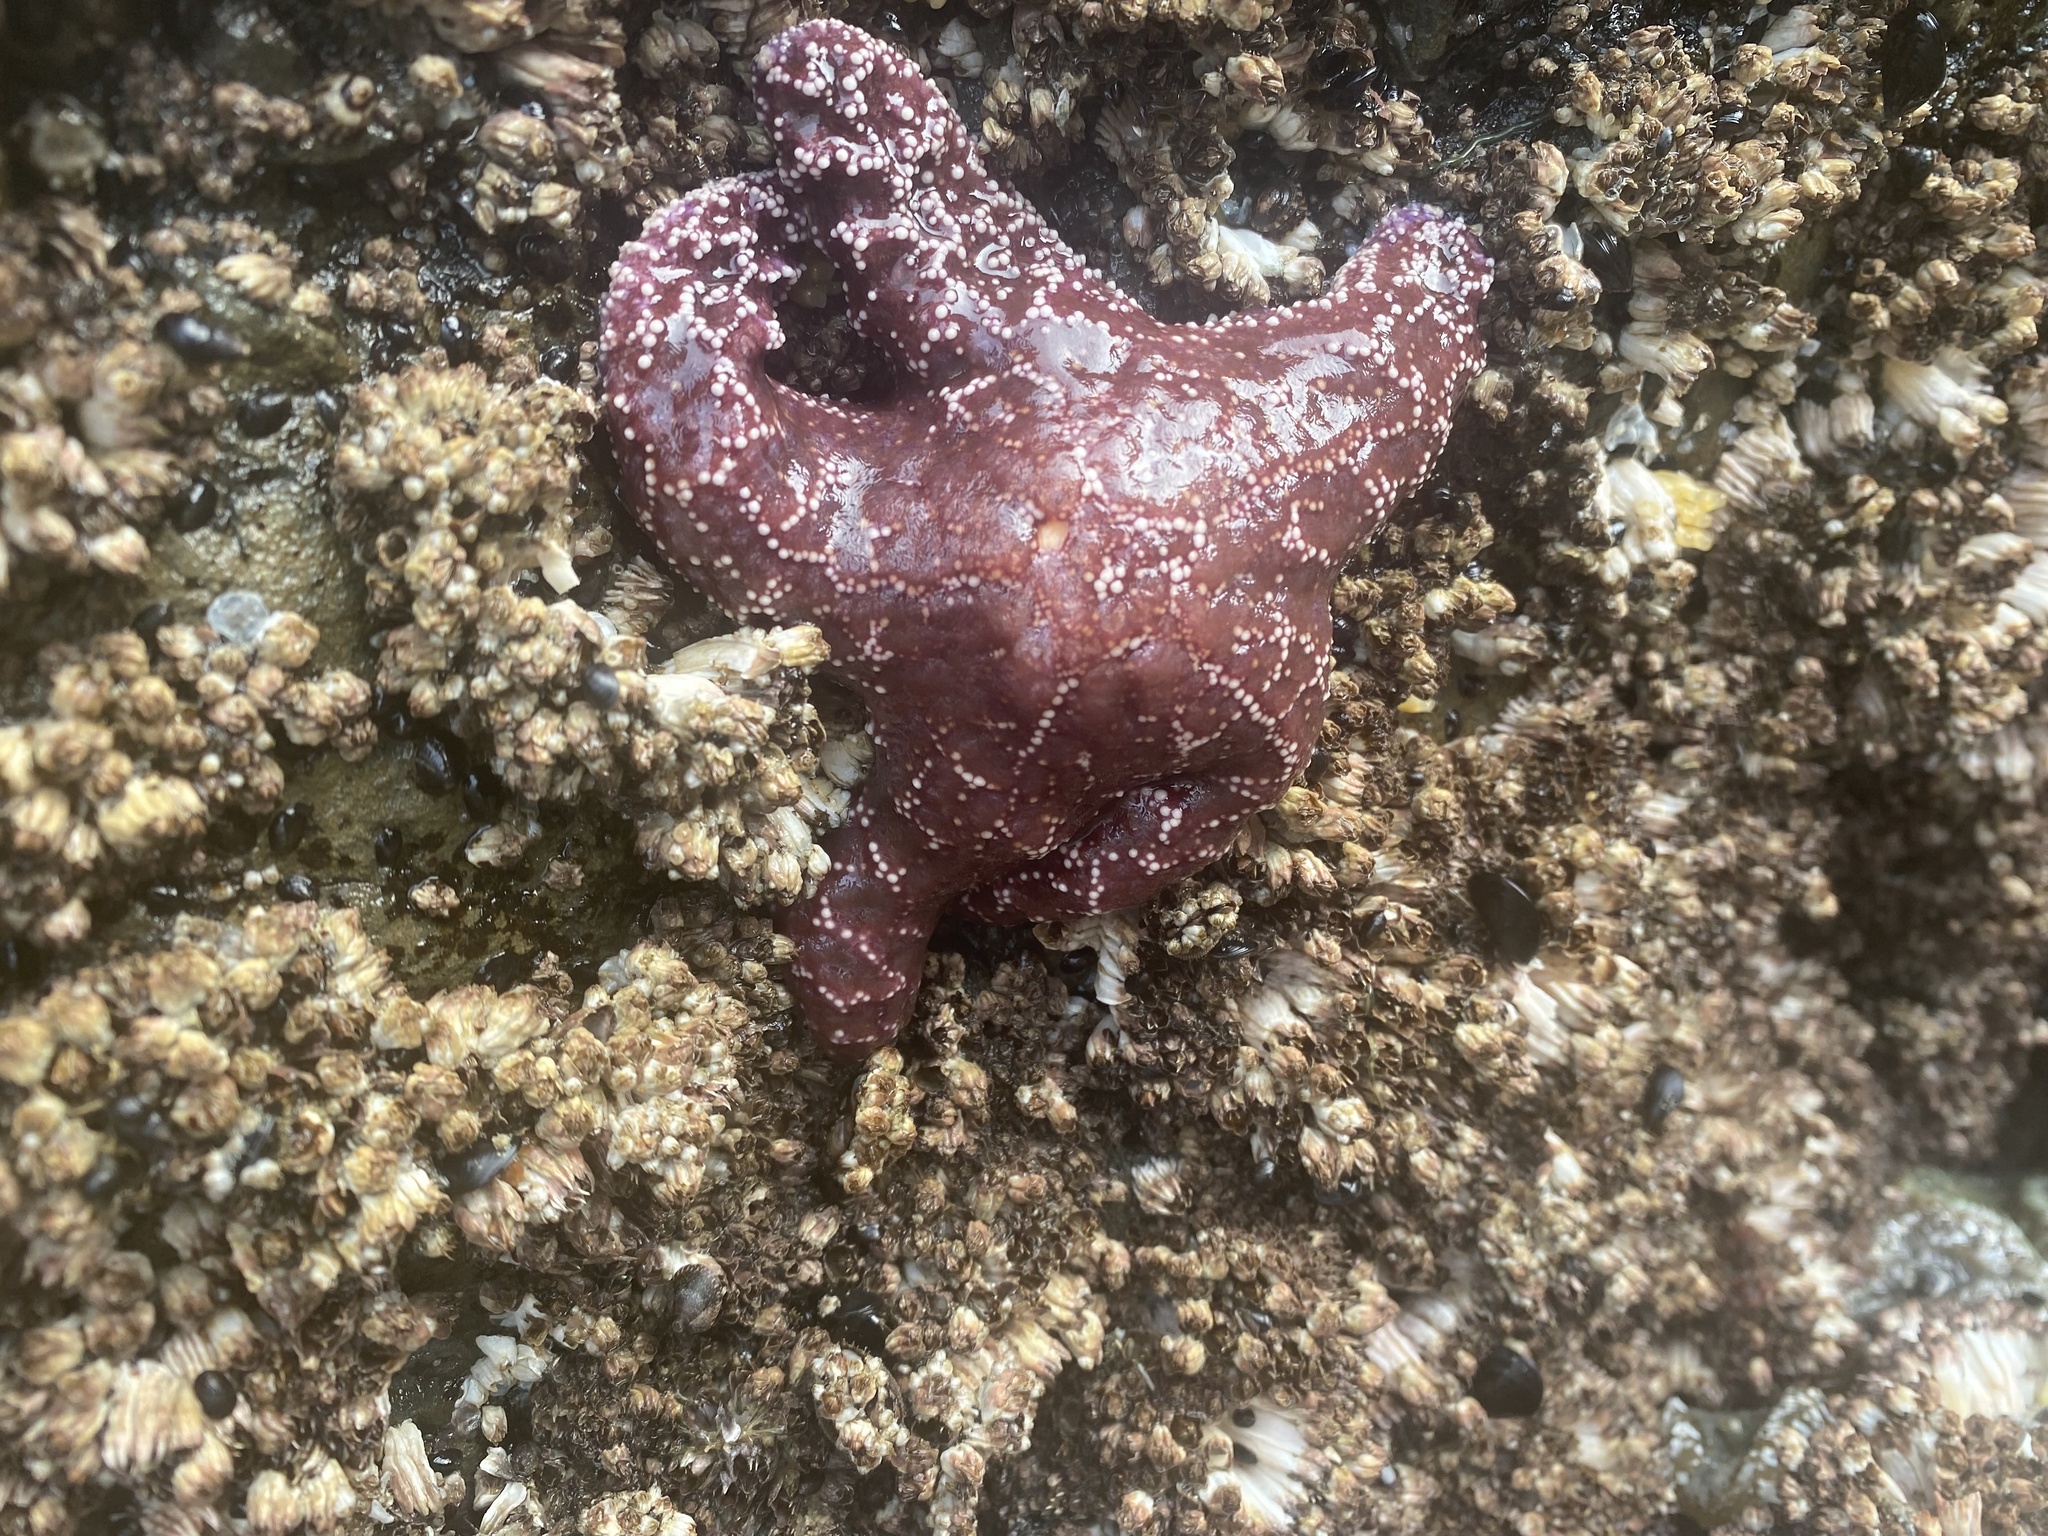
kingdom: Animalia
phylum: Echinodermata
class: Asteroidea
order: Forcipulatida
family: Asteriidae
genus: Pisaster
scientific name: Pisaster ochraceus
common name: Ochre stars
